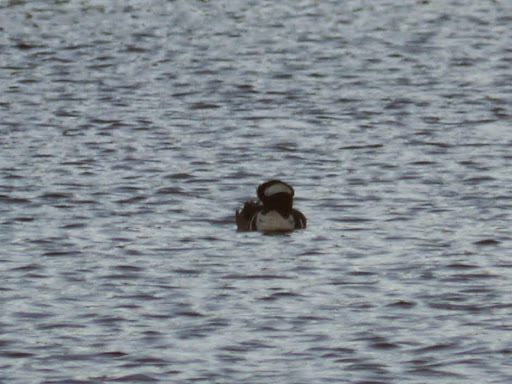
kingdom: Animalia
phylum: Chordata
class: Aves
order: Anseriformes
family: Anatidae
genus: Lophodytes
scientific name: Lophodytes cucullatus
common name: Hooded merganser
